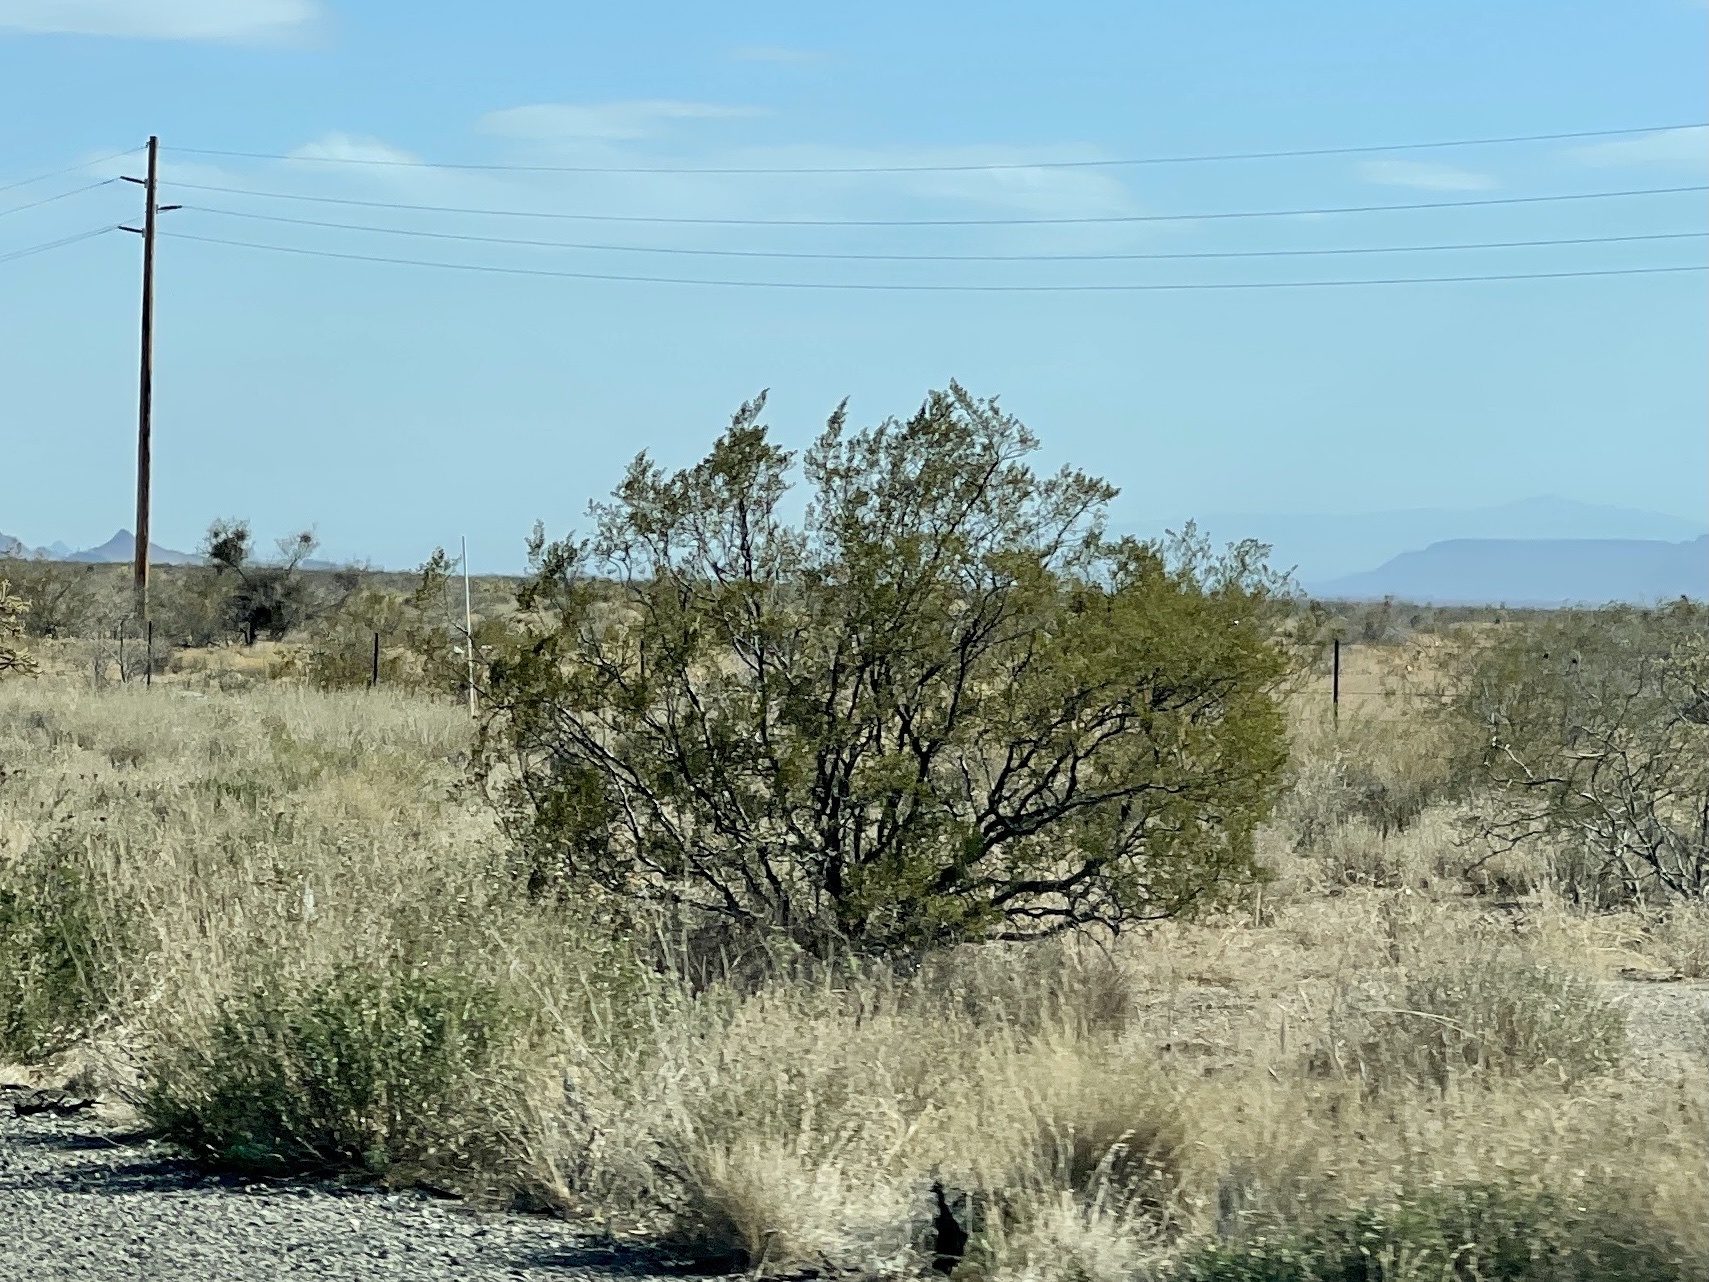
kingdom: Plantae
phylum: Tracheophyta
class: Magnoliopsida
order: Zygophyllales
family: Zygophyllaceae
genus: Larrea
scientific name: Larrea tridentata
